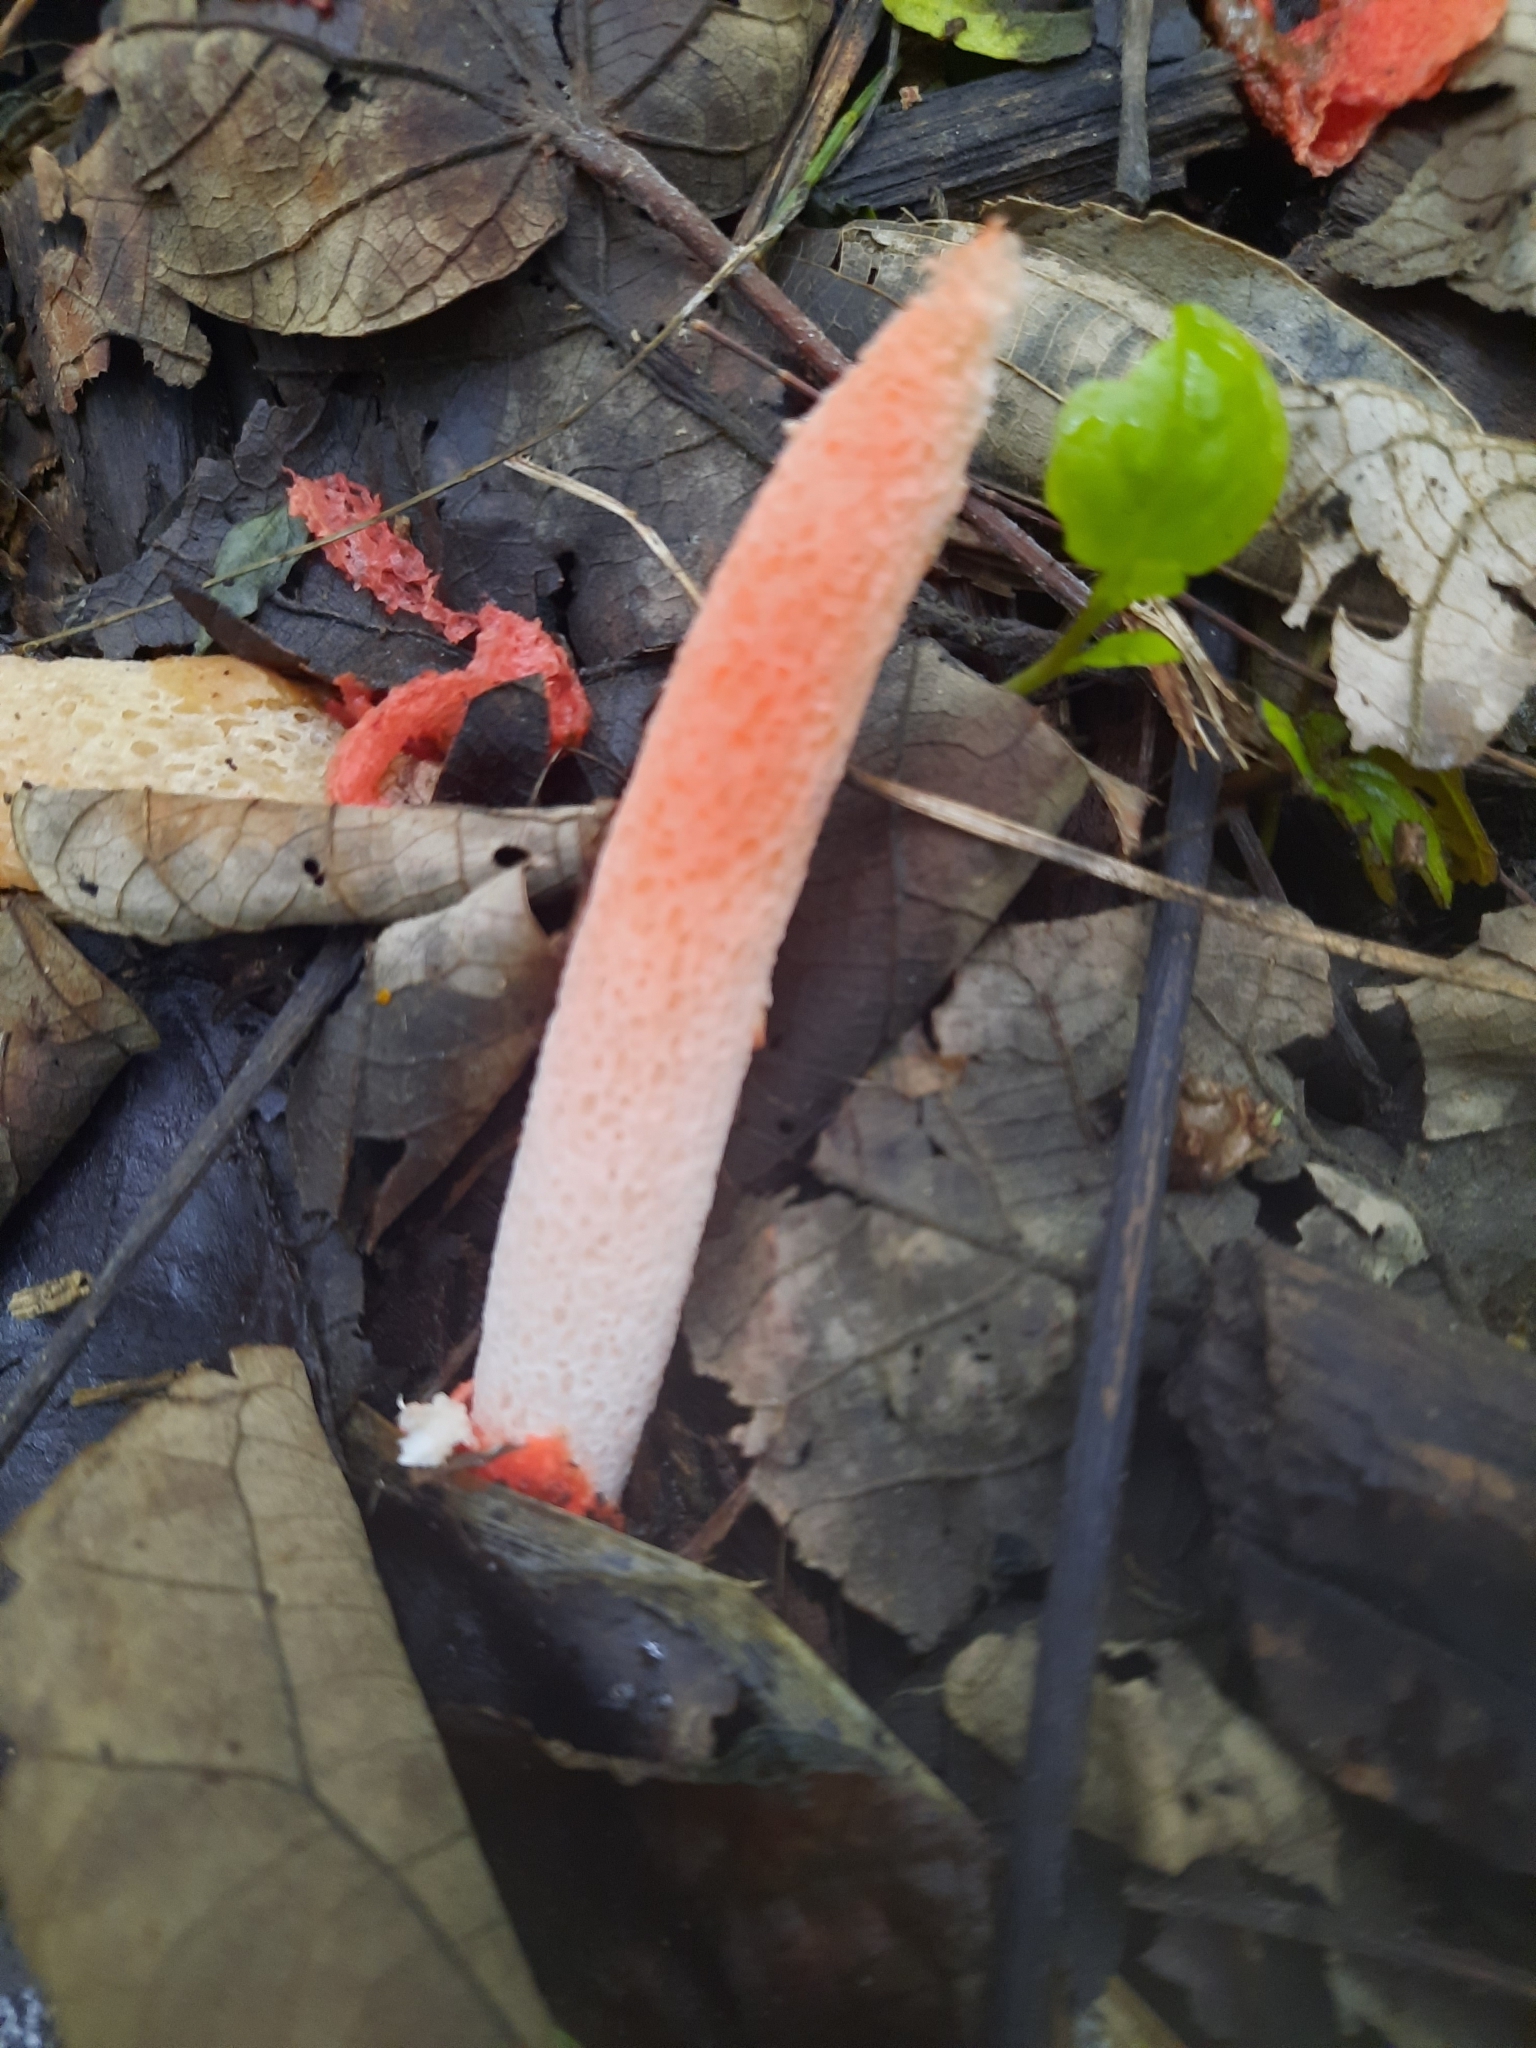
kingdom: Fungi
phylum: Basidiomycota
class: Agaricomycetes
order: Phallales
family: Phallaceae
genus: Phallus
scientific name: Phallus rugulosus
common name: Wrinkly stinkhorn
